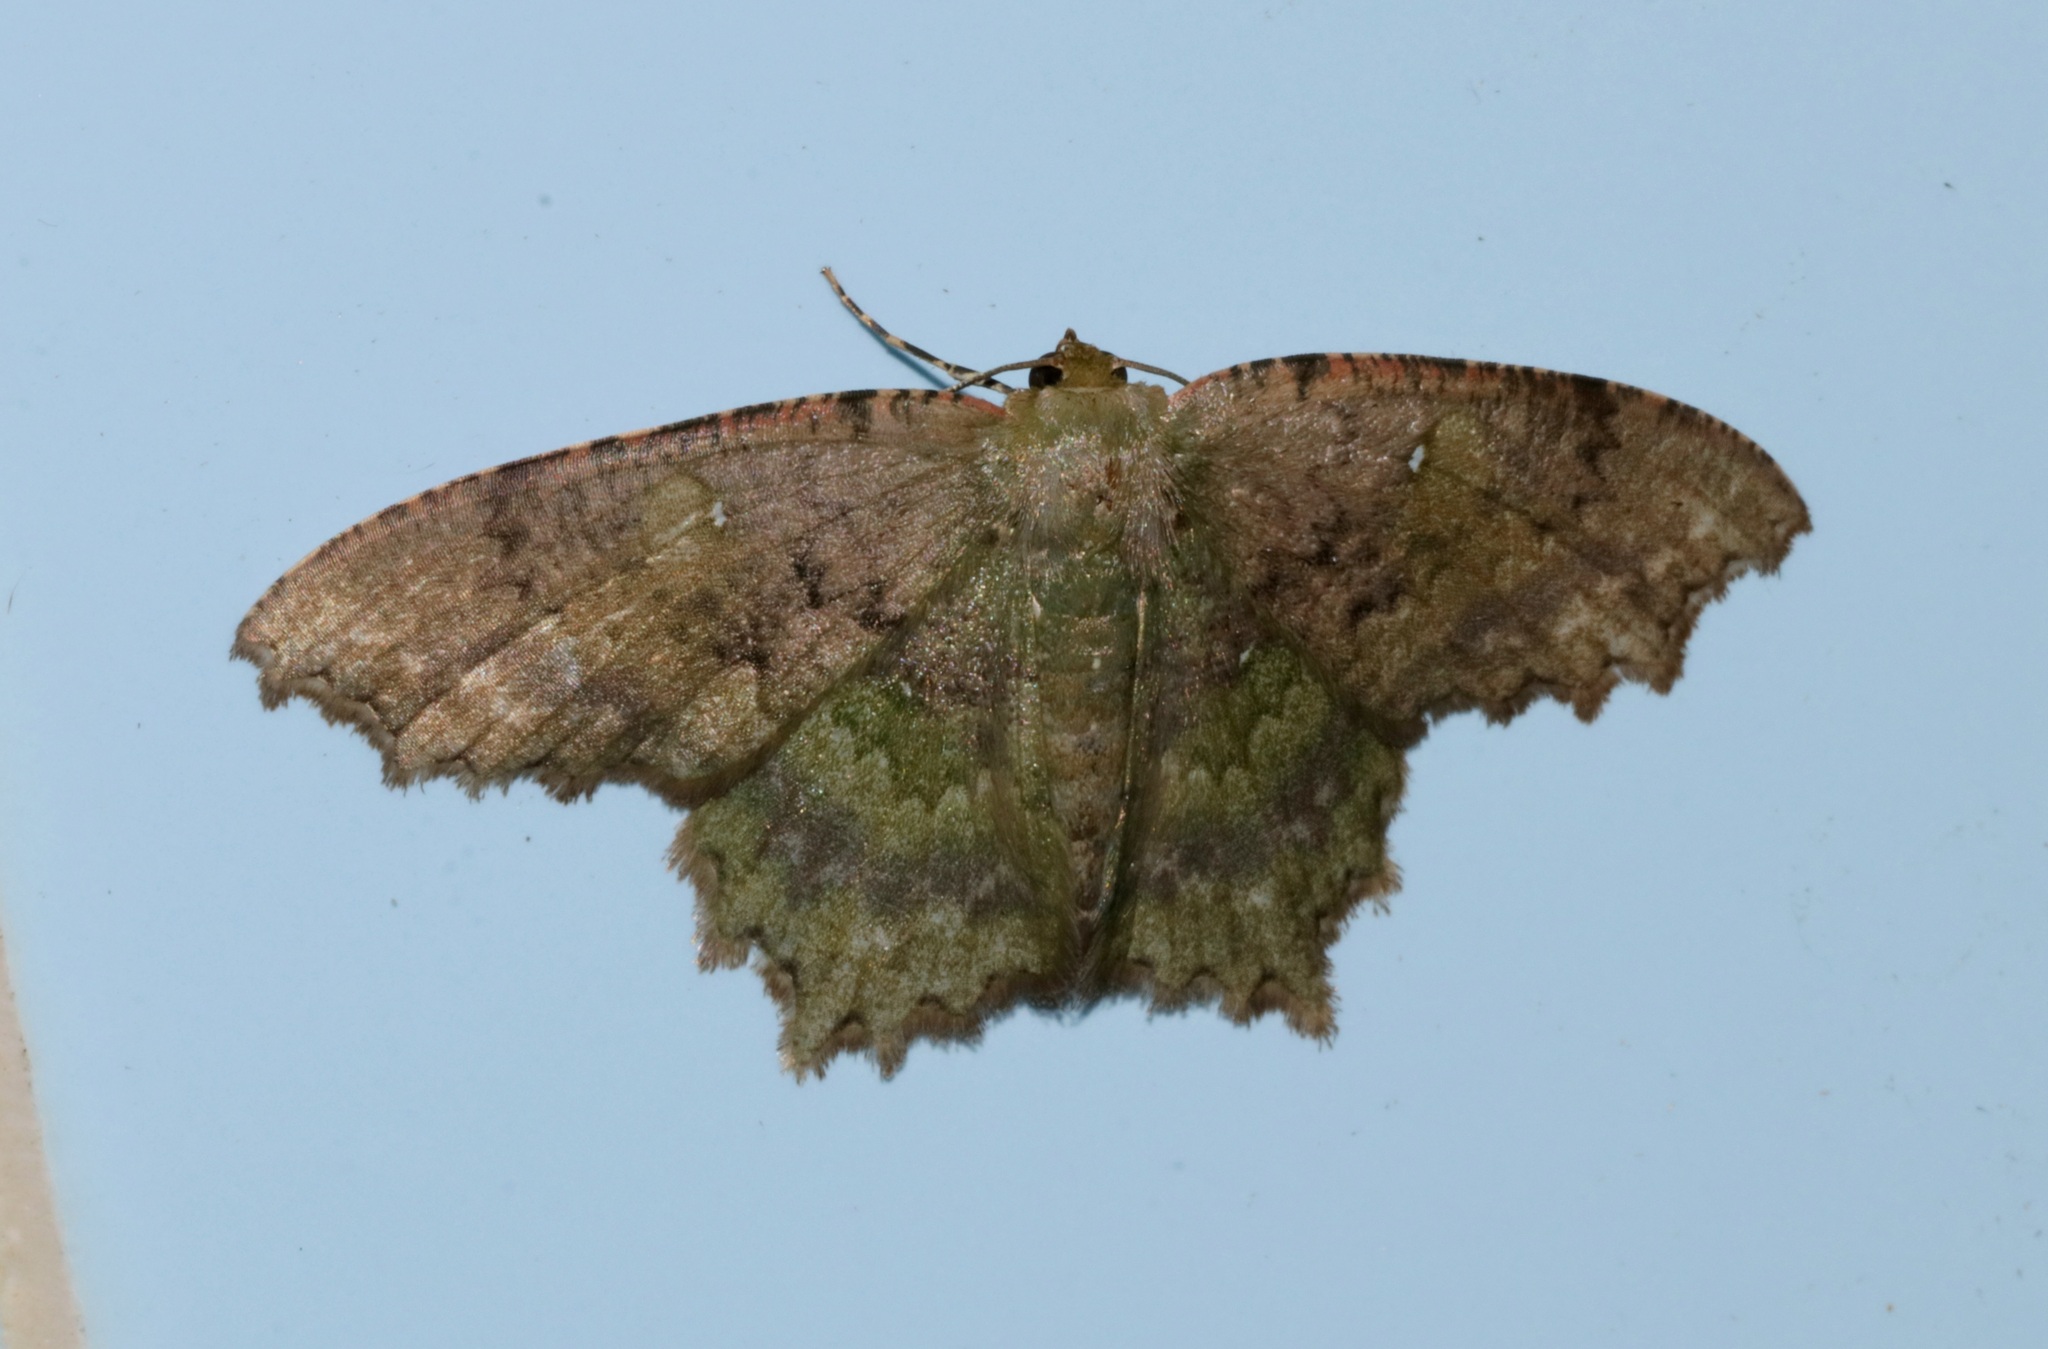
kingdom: Animalia
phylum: Arthropoda
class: Insecta
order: Lepidoptera
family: Geometridae
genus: Paramaxates
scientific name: Paramaxates vagata
